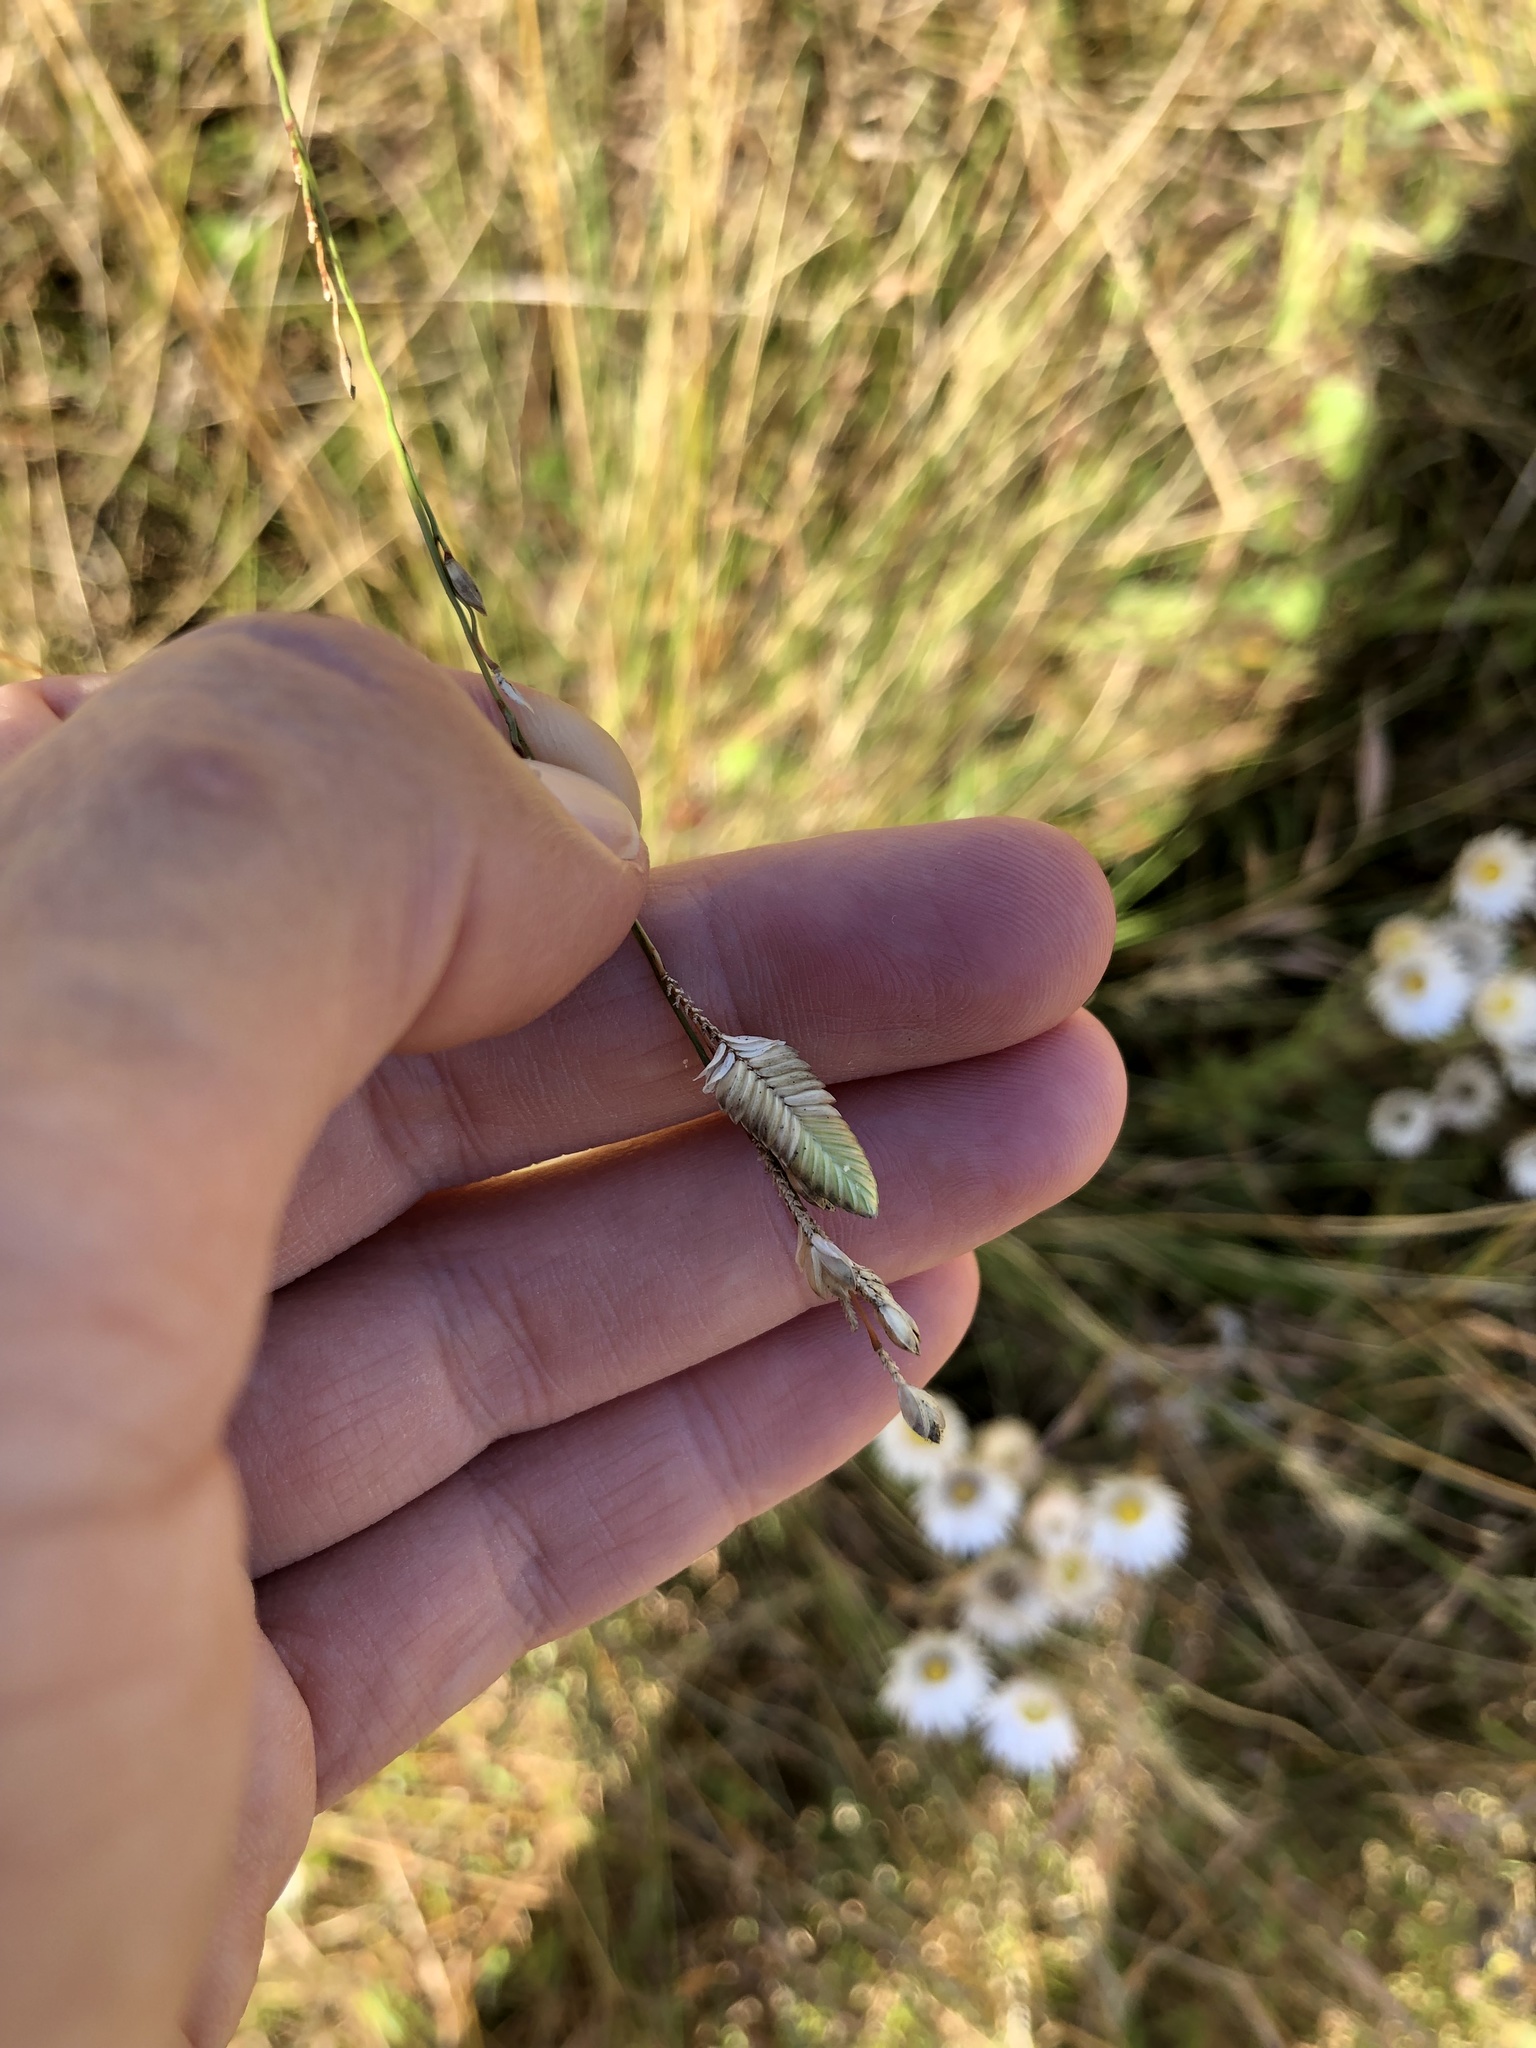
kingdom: Plantae
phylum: Tracheophyta
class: Liliopsida
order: Poales
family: Poaceae
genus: Eragrostis
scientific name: Eragrostis superba
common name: Wilman lovegrass
